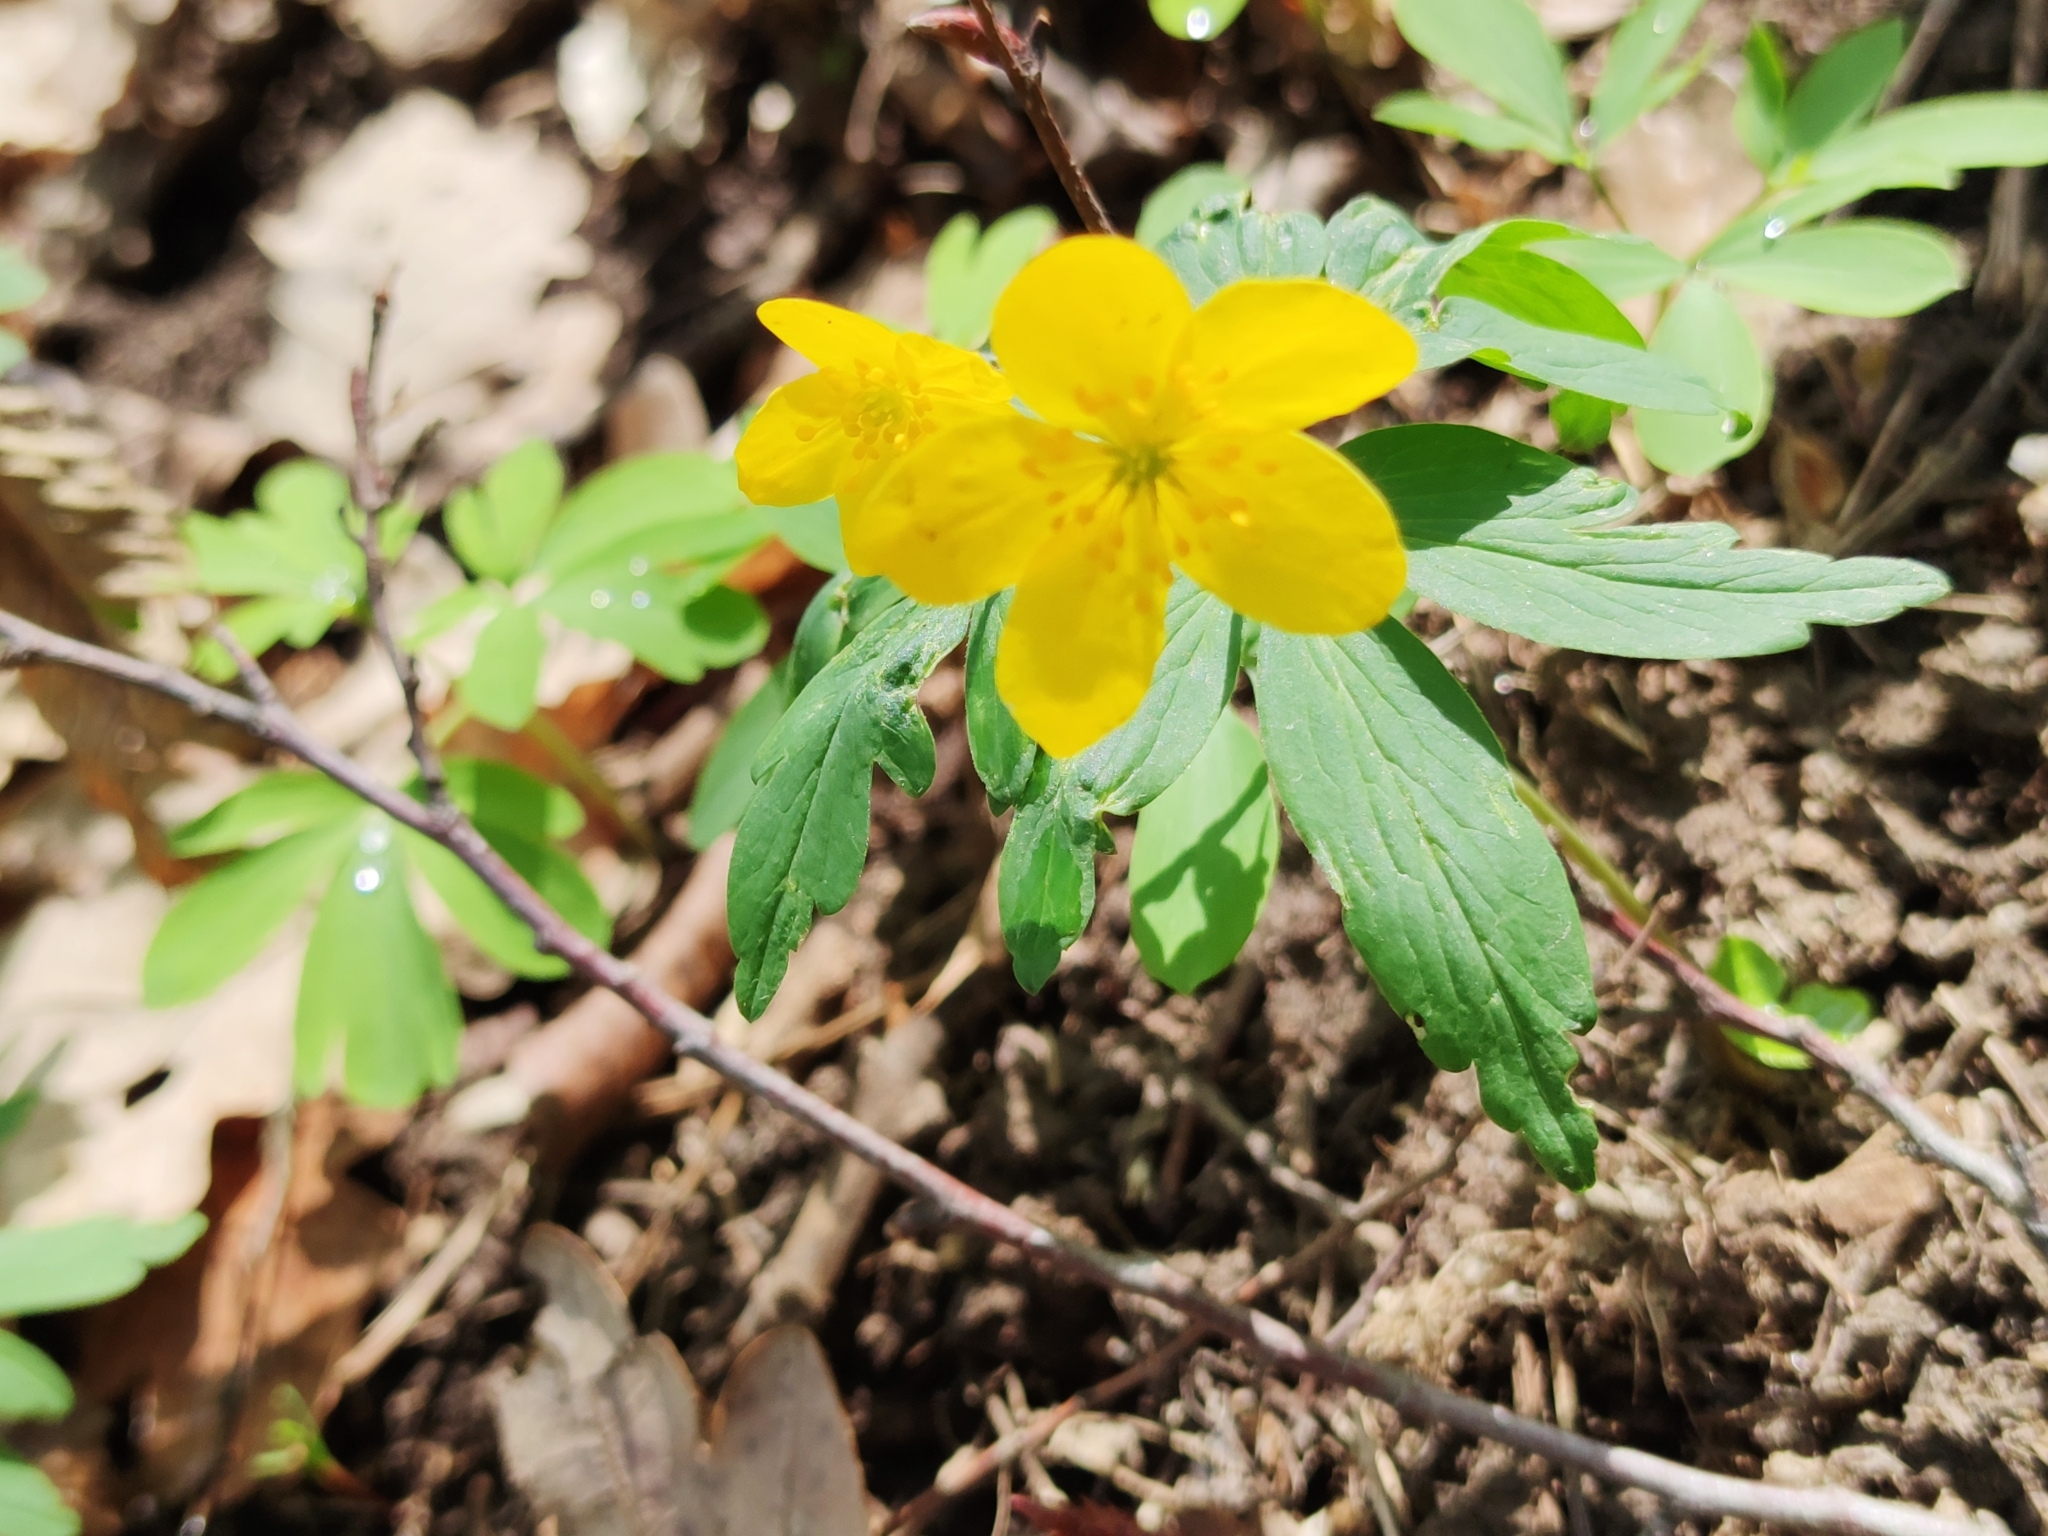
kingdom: Plantae
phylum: Tracheophyta
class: Magnoliopsida
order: Ranunculales
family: Ranunculaceae
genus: Anemone
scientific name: Anemone ranunculoides
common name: Yellow anemone
